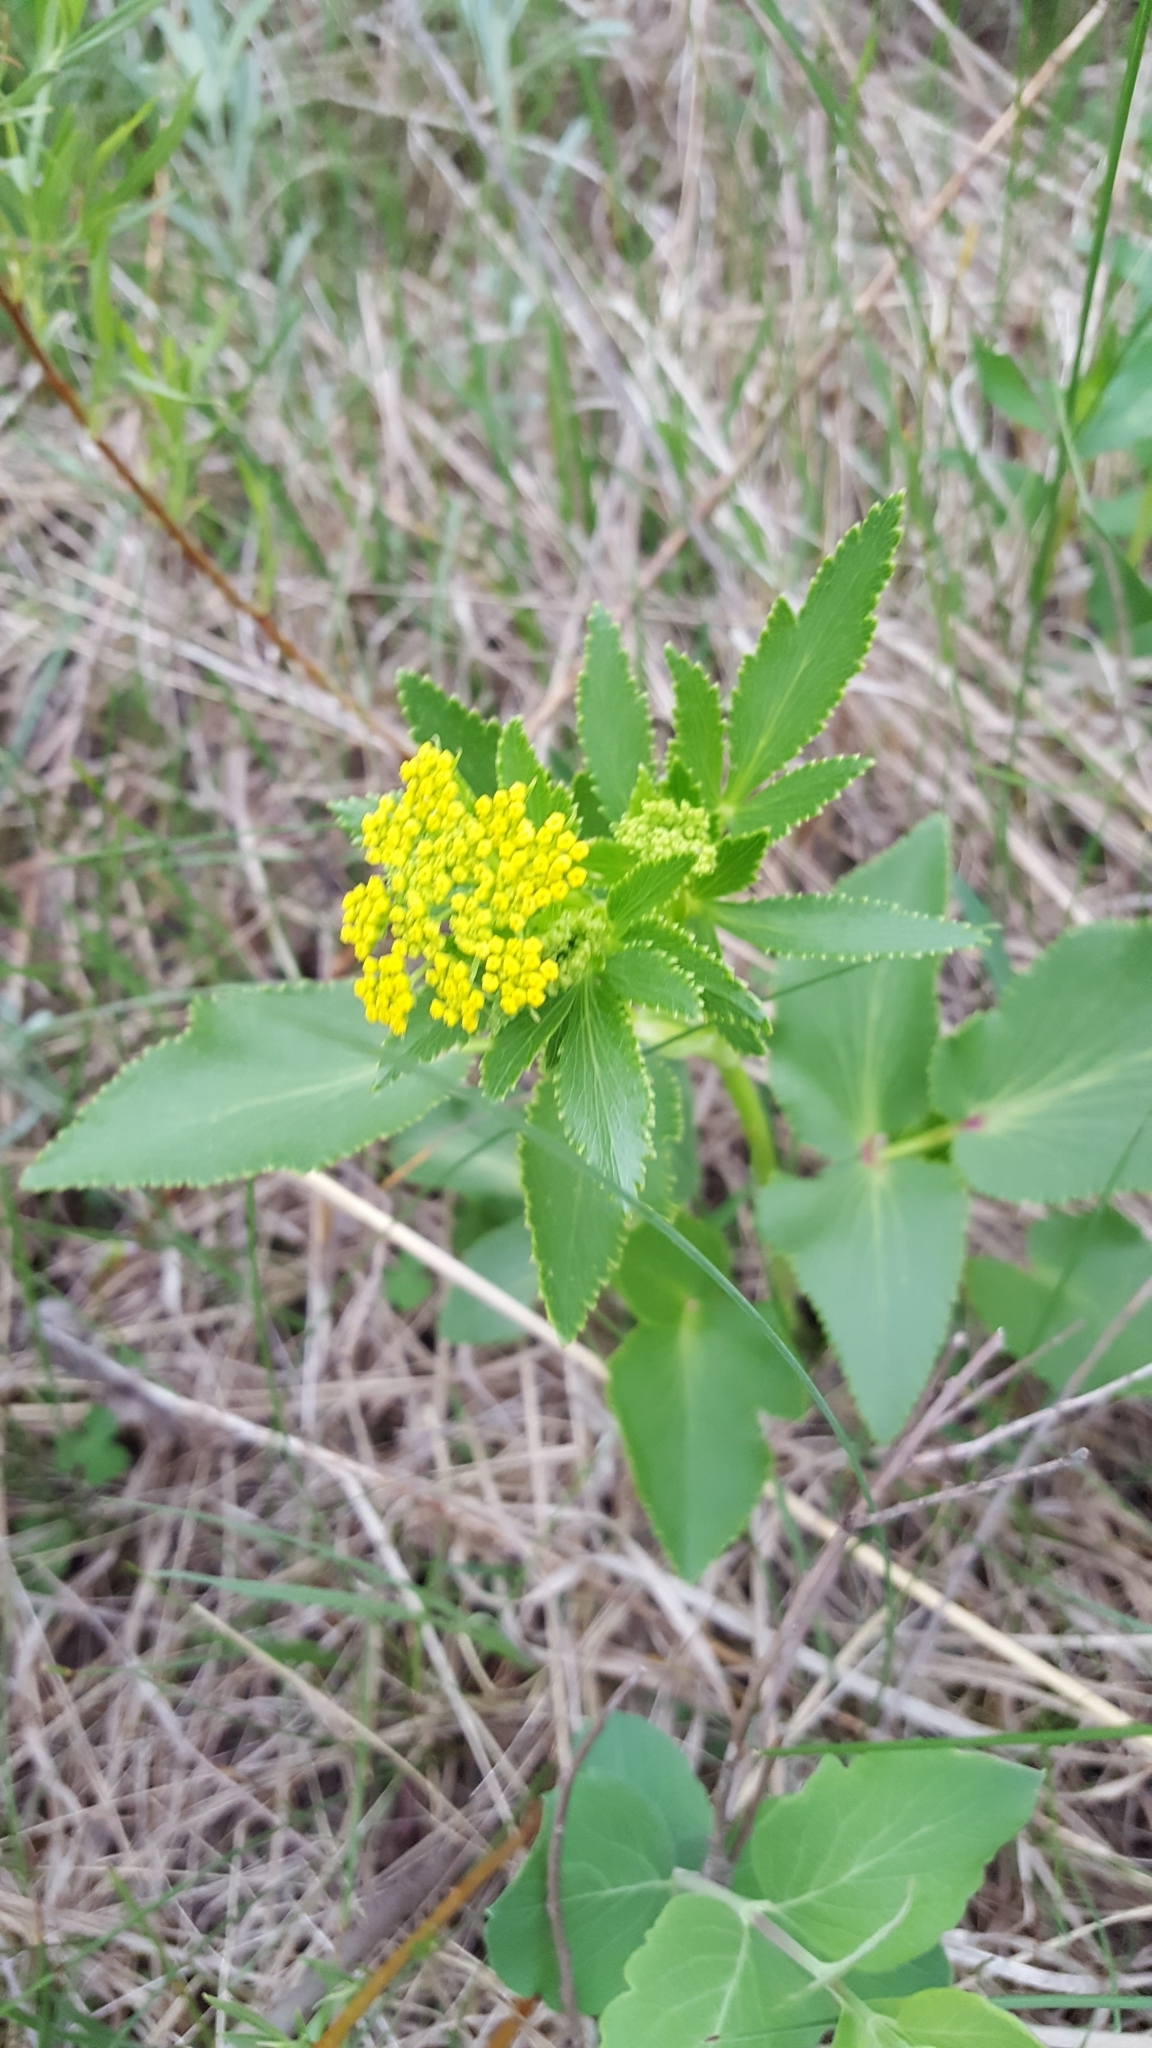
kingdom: Plantae
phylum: Tracheophyta
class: Magnoliopsida
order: Apiales
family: Apiaceae
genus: Zizia
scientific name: Zizia aptera
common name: Heart-leaved alexanders
